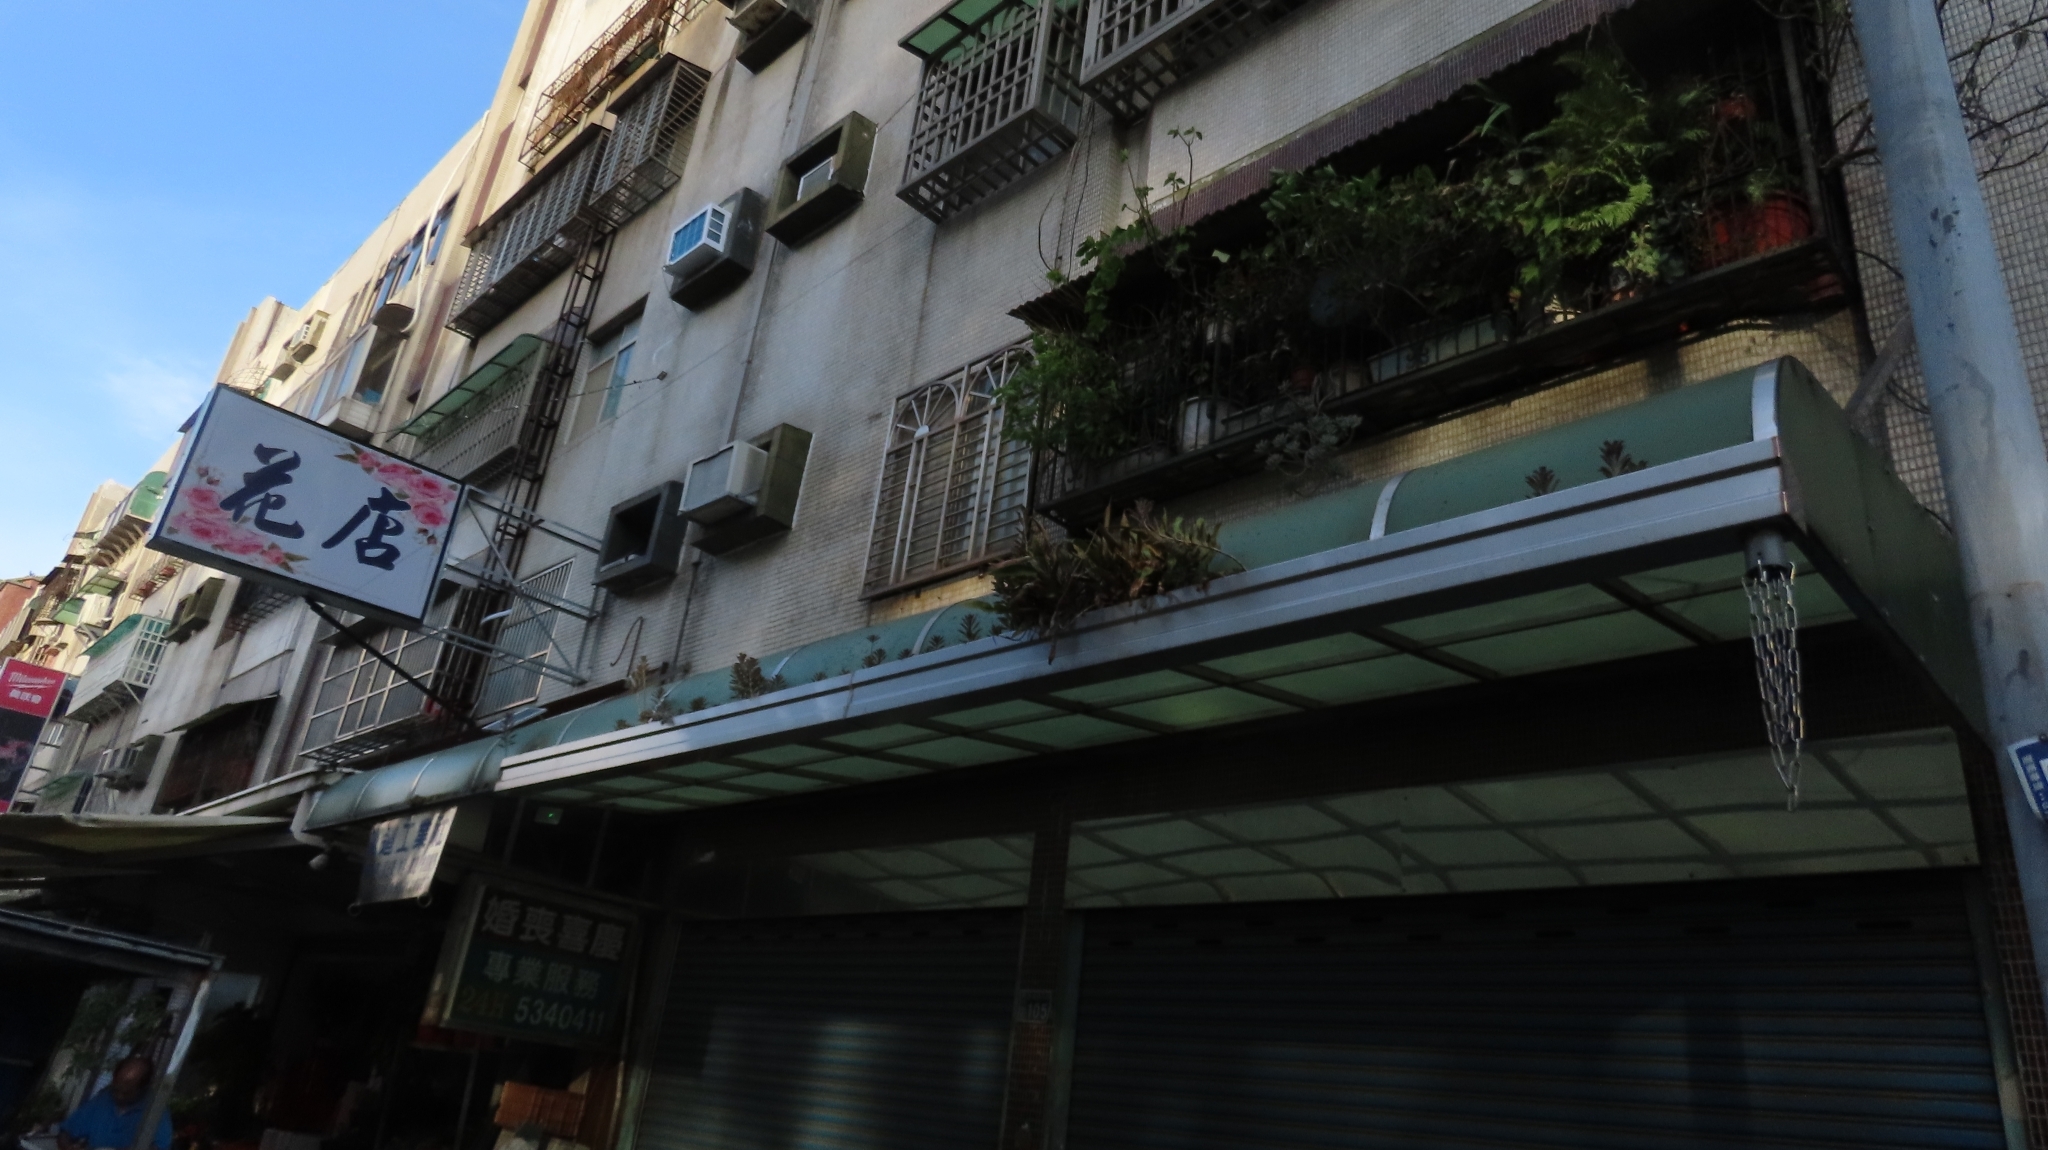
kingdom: Plantae
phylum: Tracheophyta
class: Polypodiopsida
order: Polypodiales
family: Polypodiaceae
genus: Pyrrosia
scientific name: Pyrrosia lingua
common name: Felt fern
